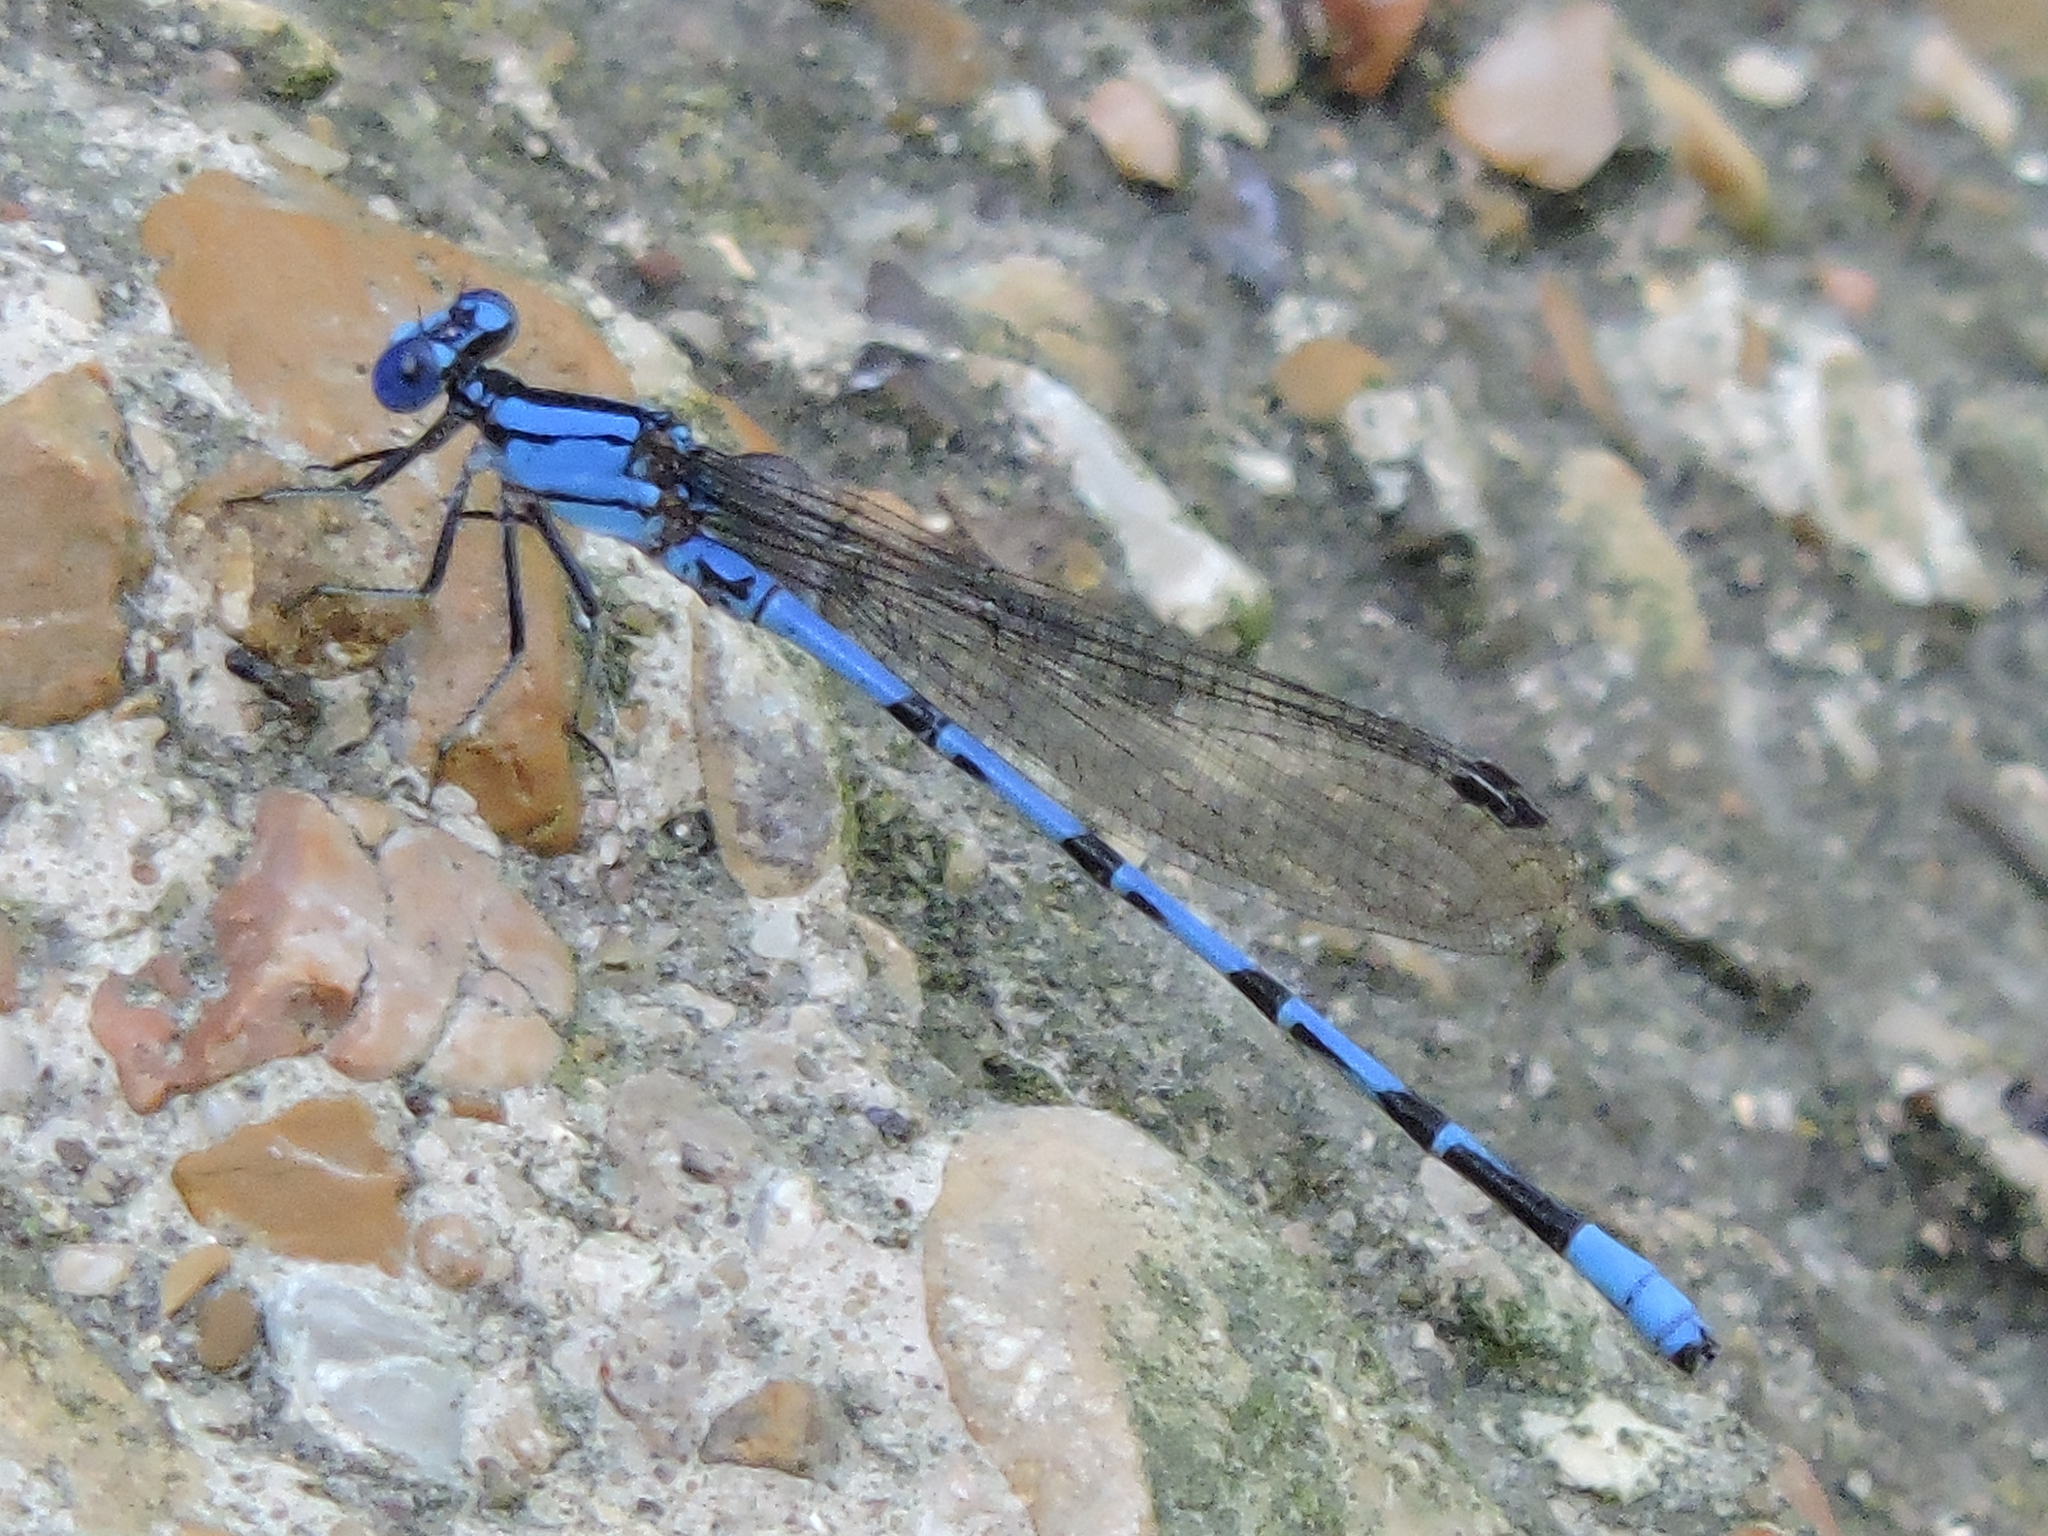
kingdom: Animalia
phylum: Arthropoda
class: Insecta
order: Odonata
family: Coenagrionidae
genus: Argia
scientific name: Argia funebris
